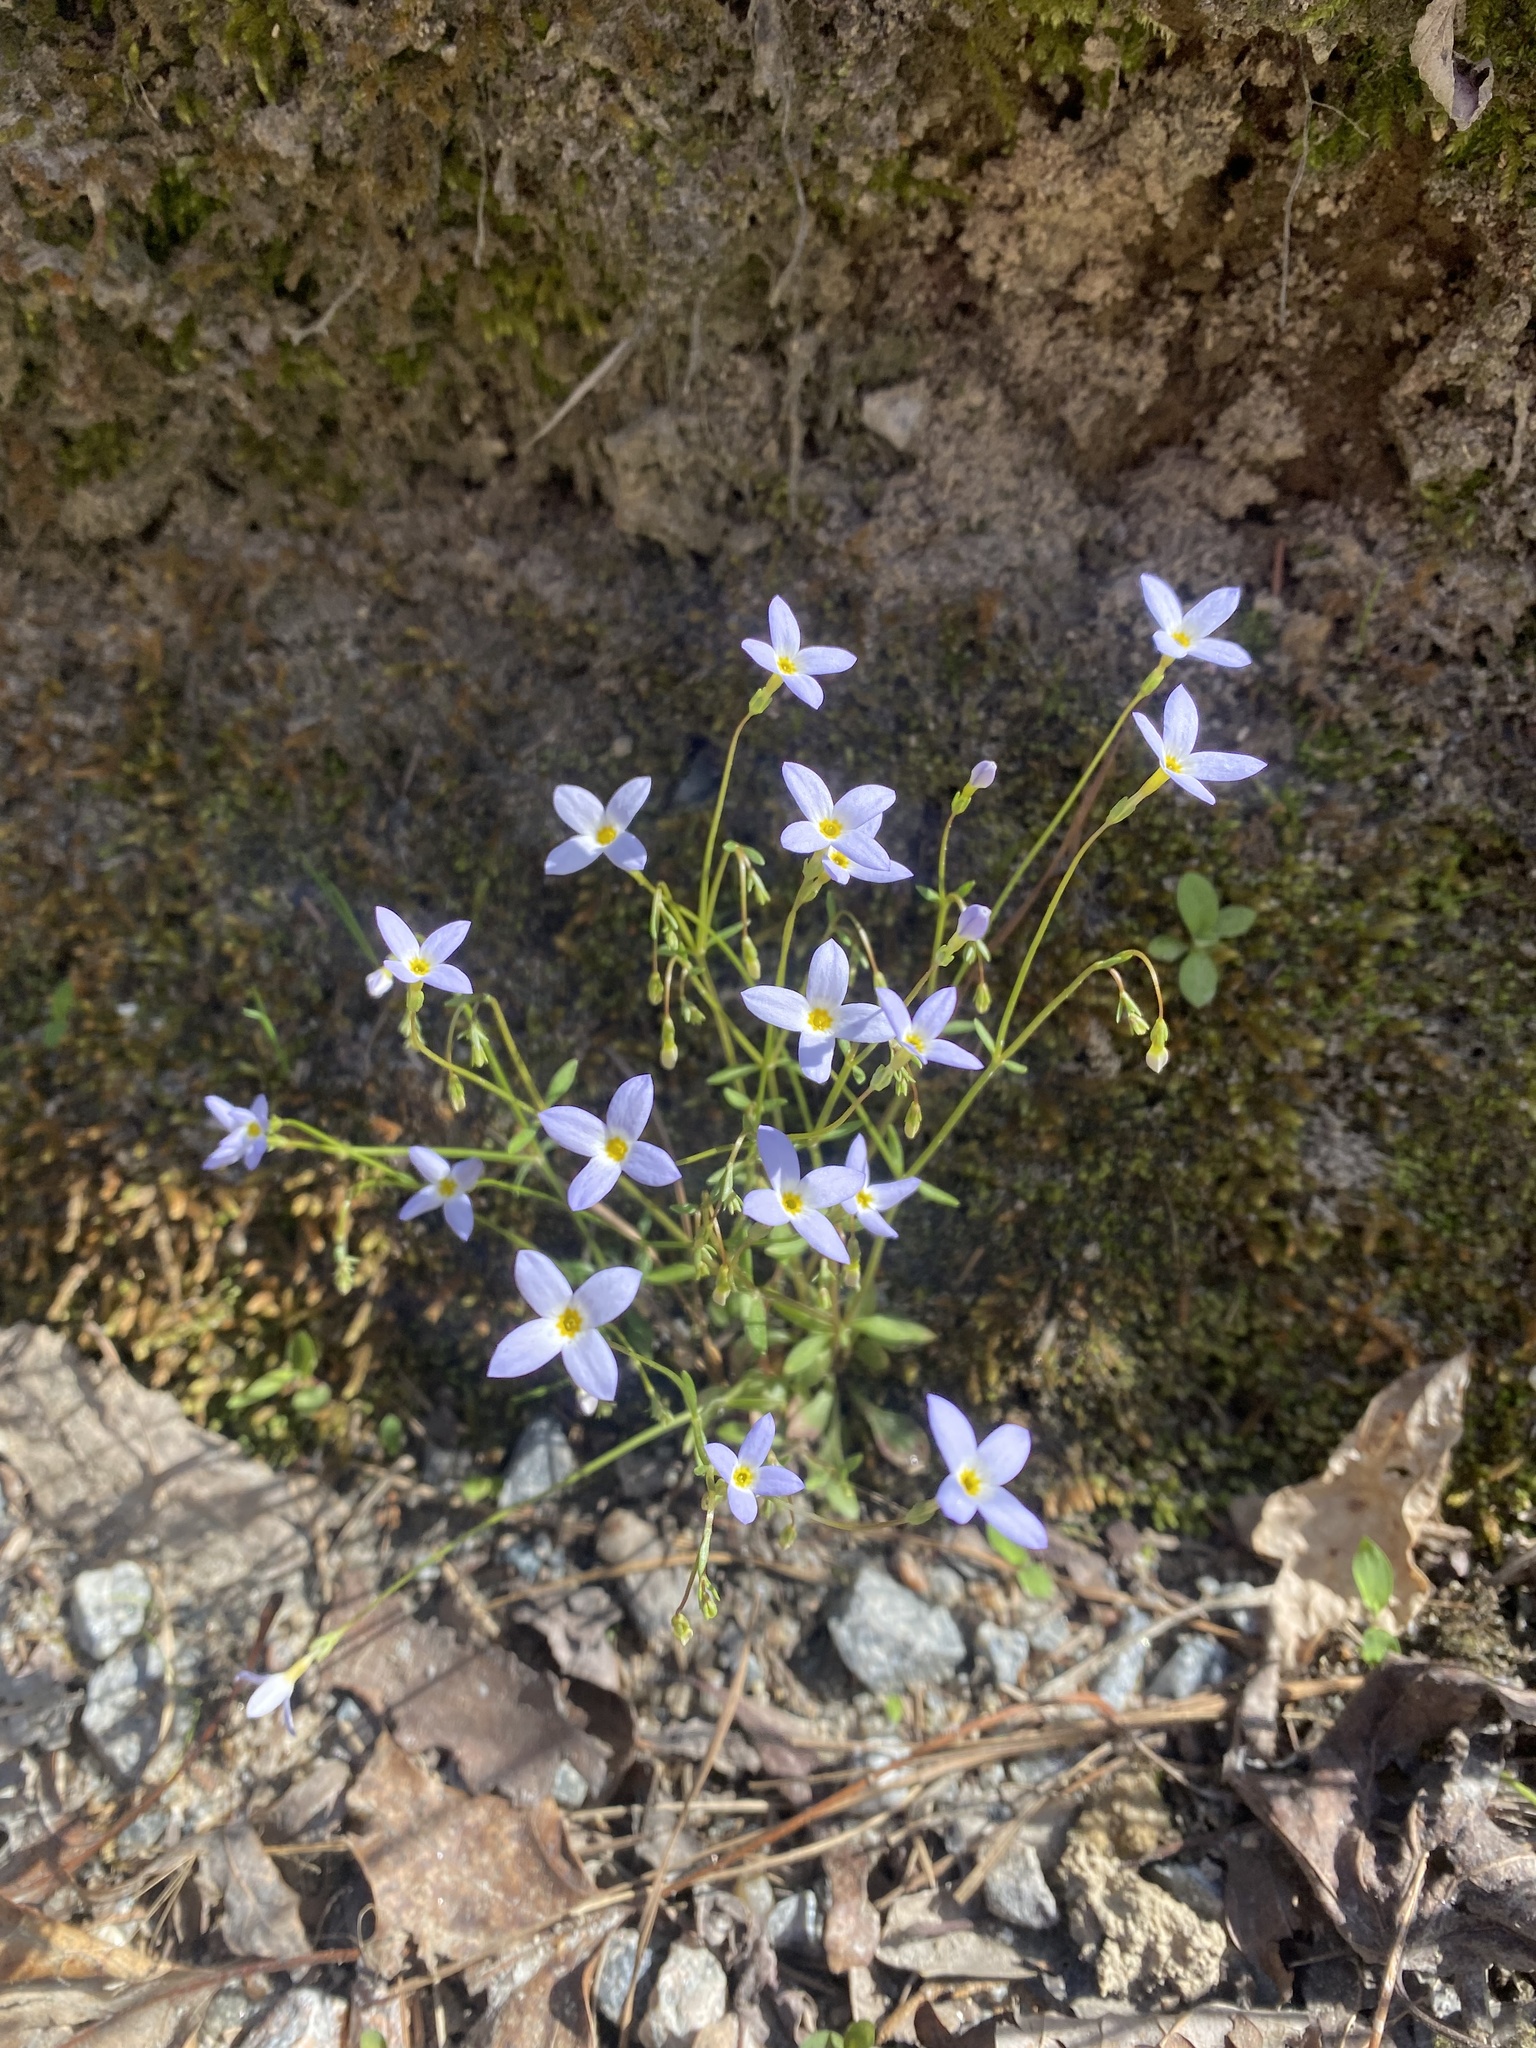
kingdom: Plantae
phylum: Tracheophyta
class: Magnoliopsida
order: Gentianales
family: Rubiaceae
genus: Houstonia
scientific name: Houstonia caerulea
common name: Bluets
